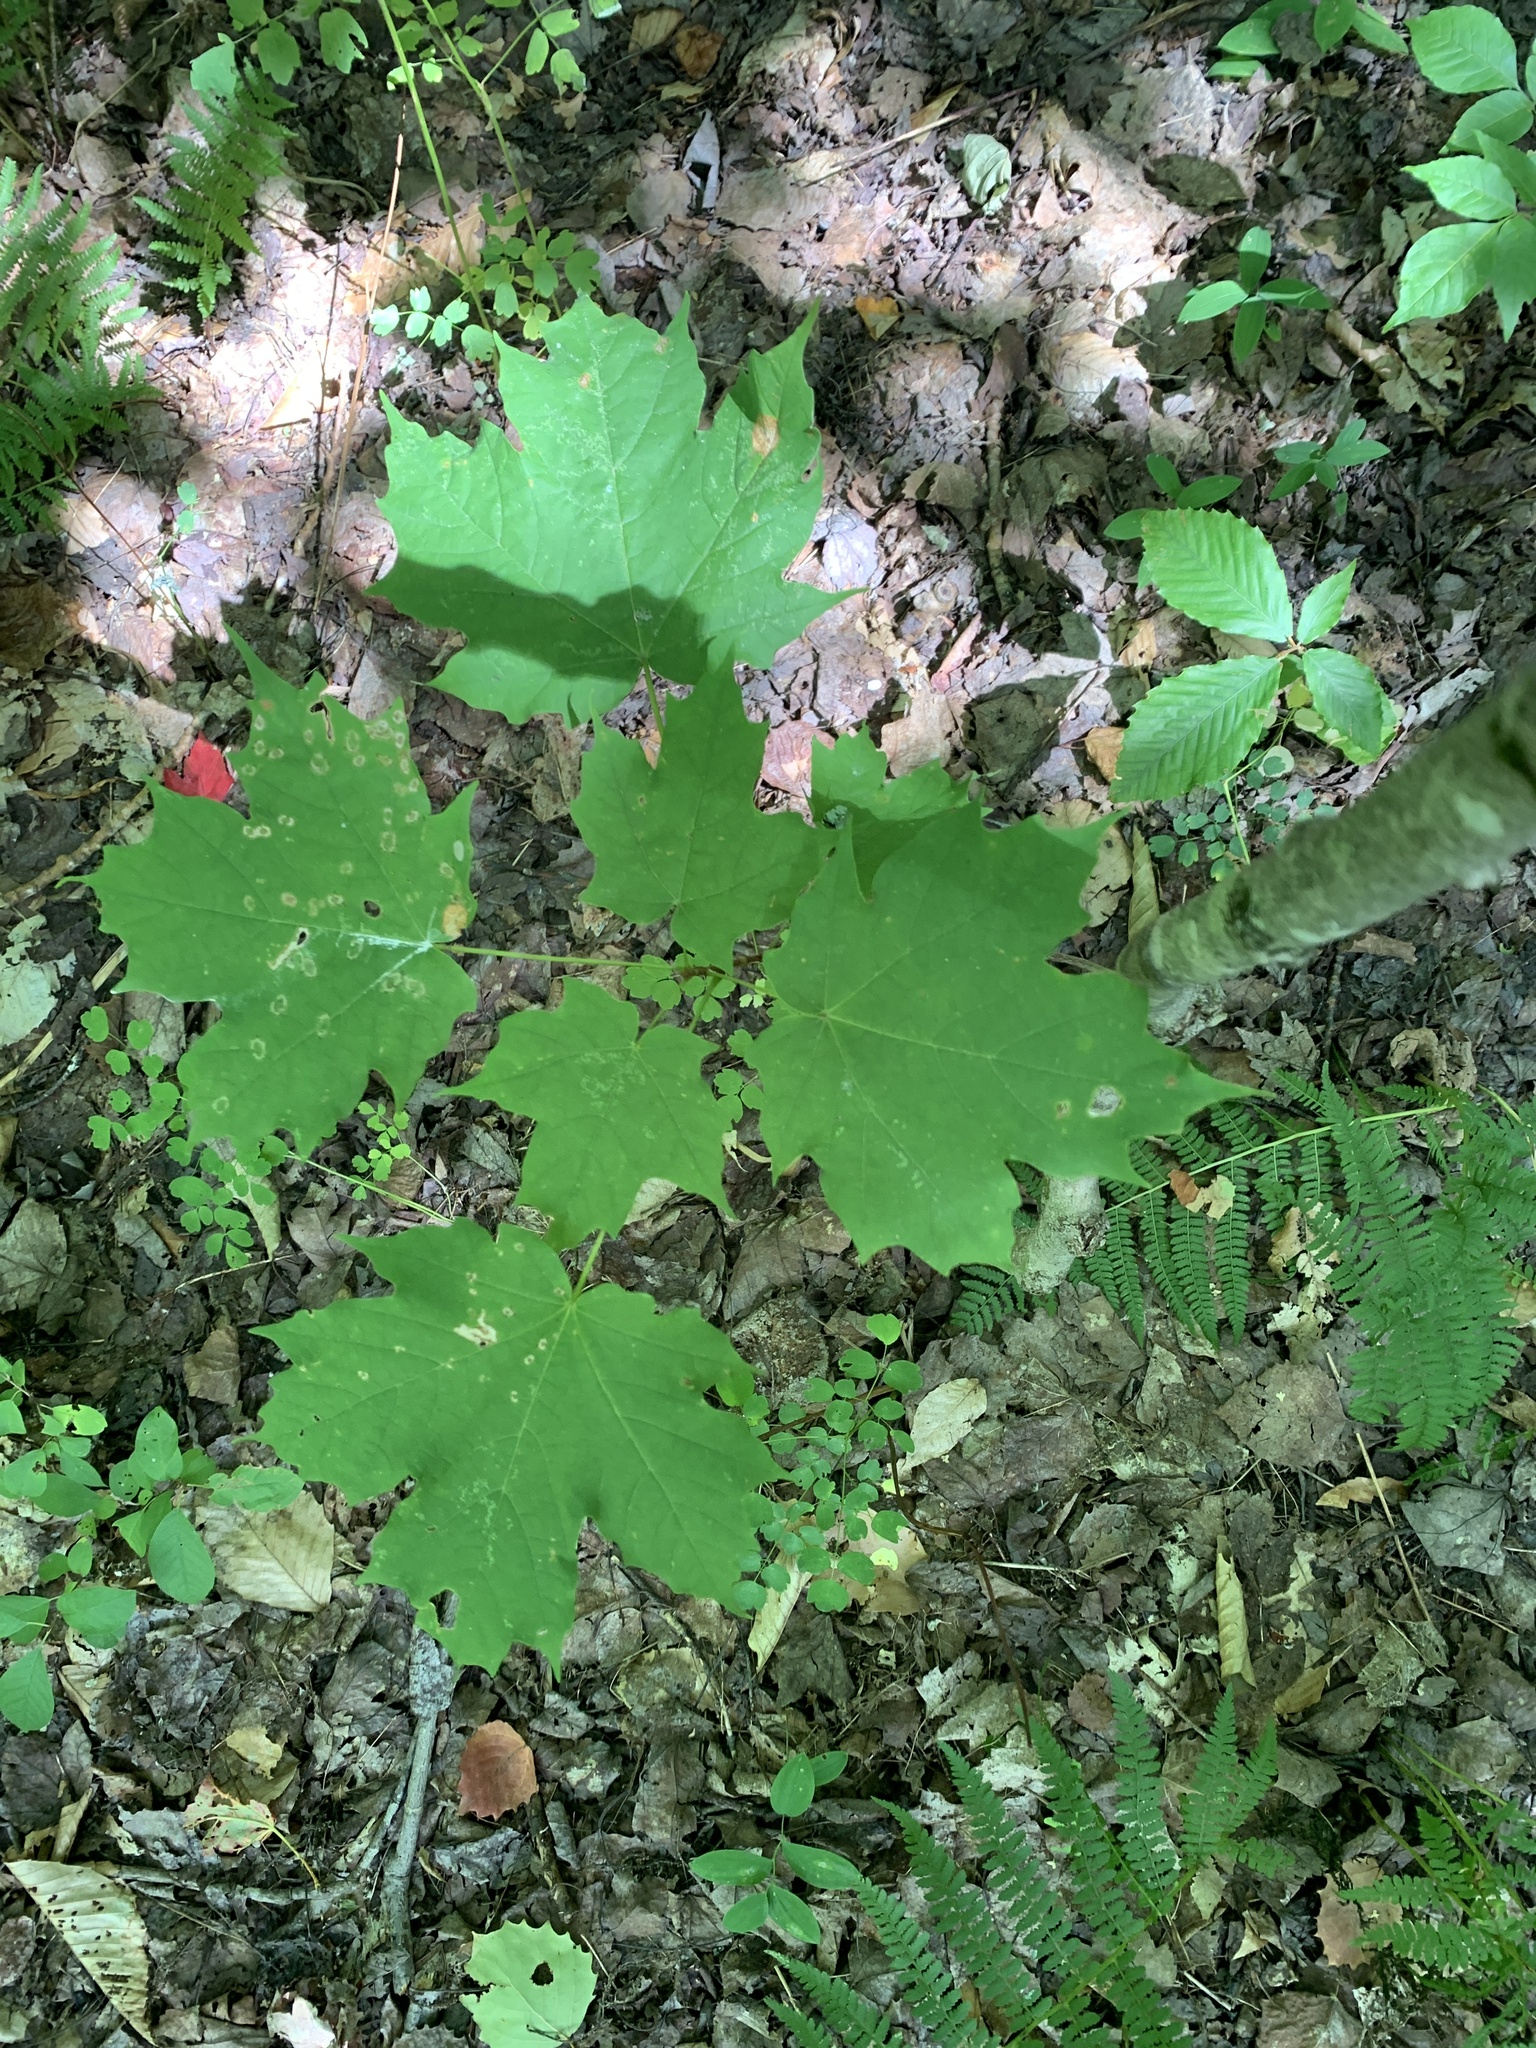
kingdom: Plantae
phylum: Tracheophyta
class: Magnoliopsida
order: Sapindales
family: Sapindaceae
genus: Acer
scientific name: Acer saccharum
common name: Sugar maple
